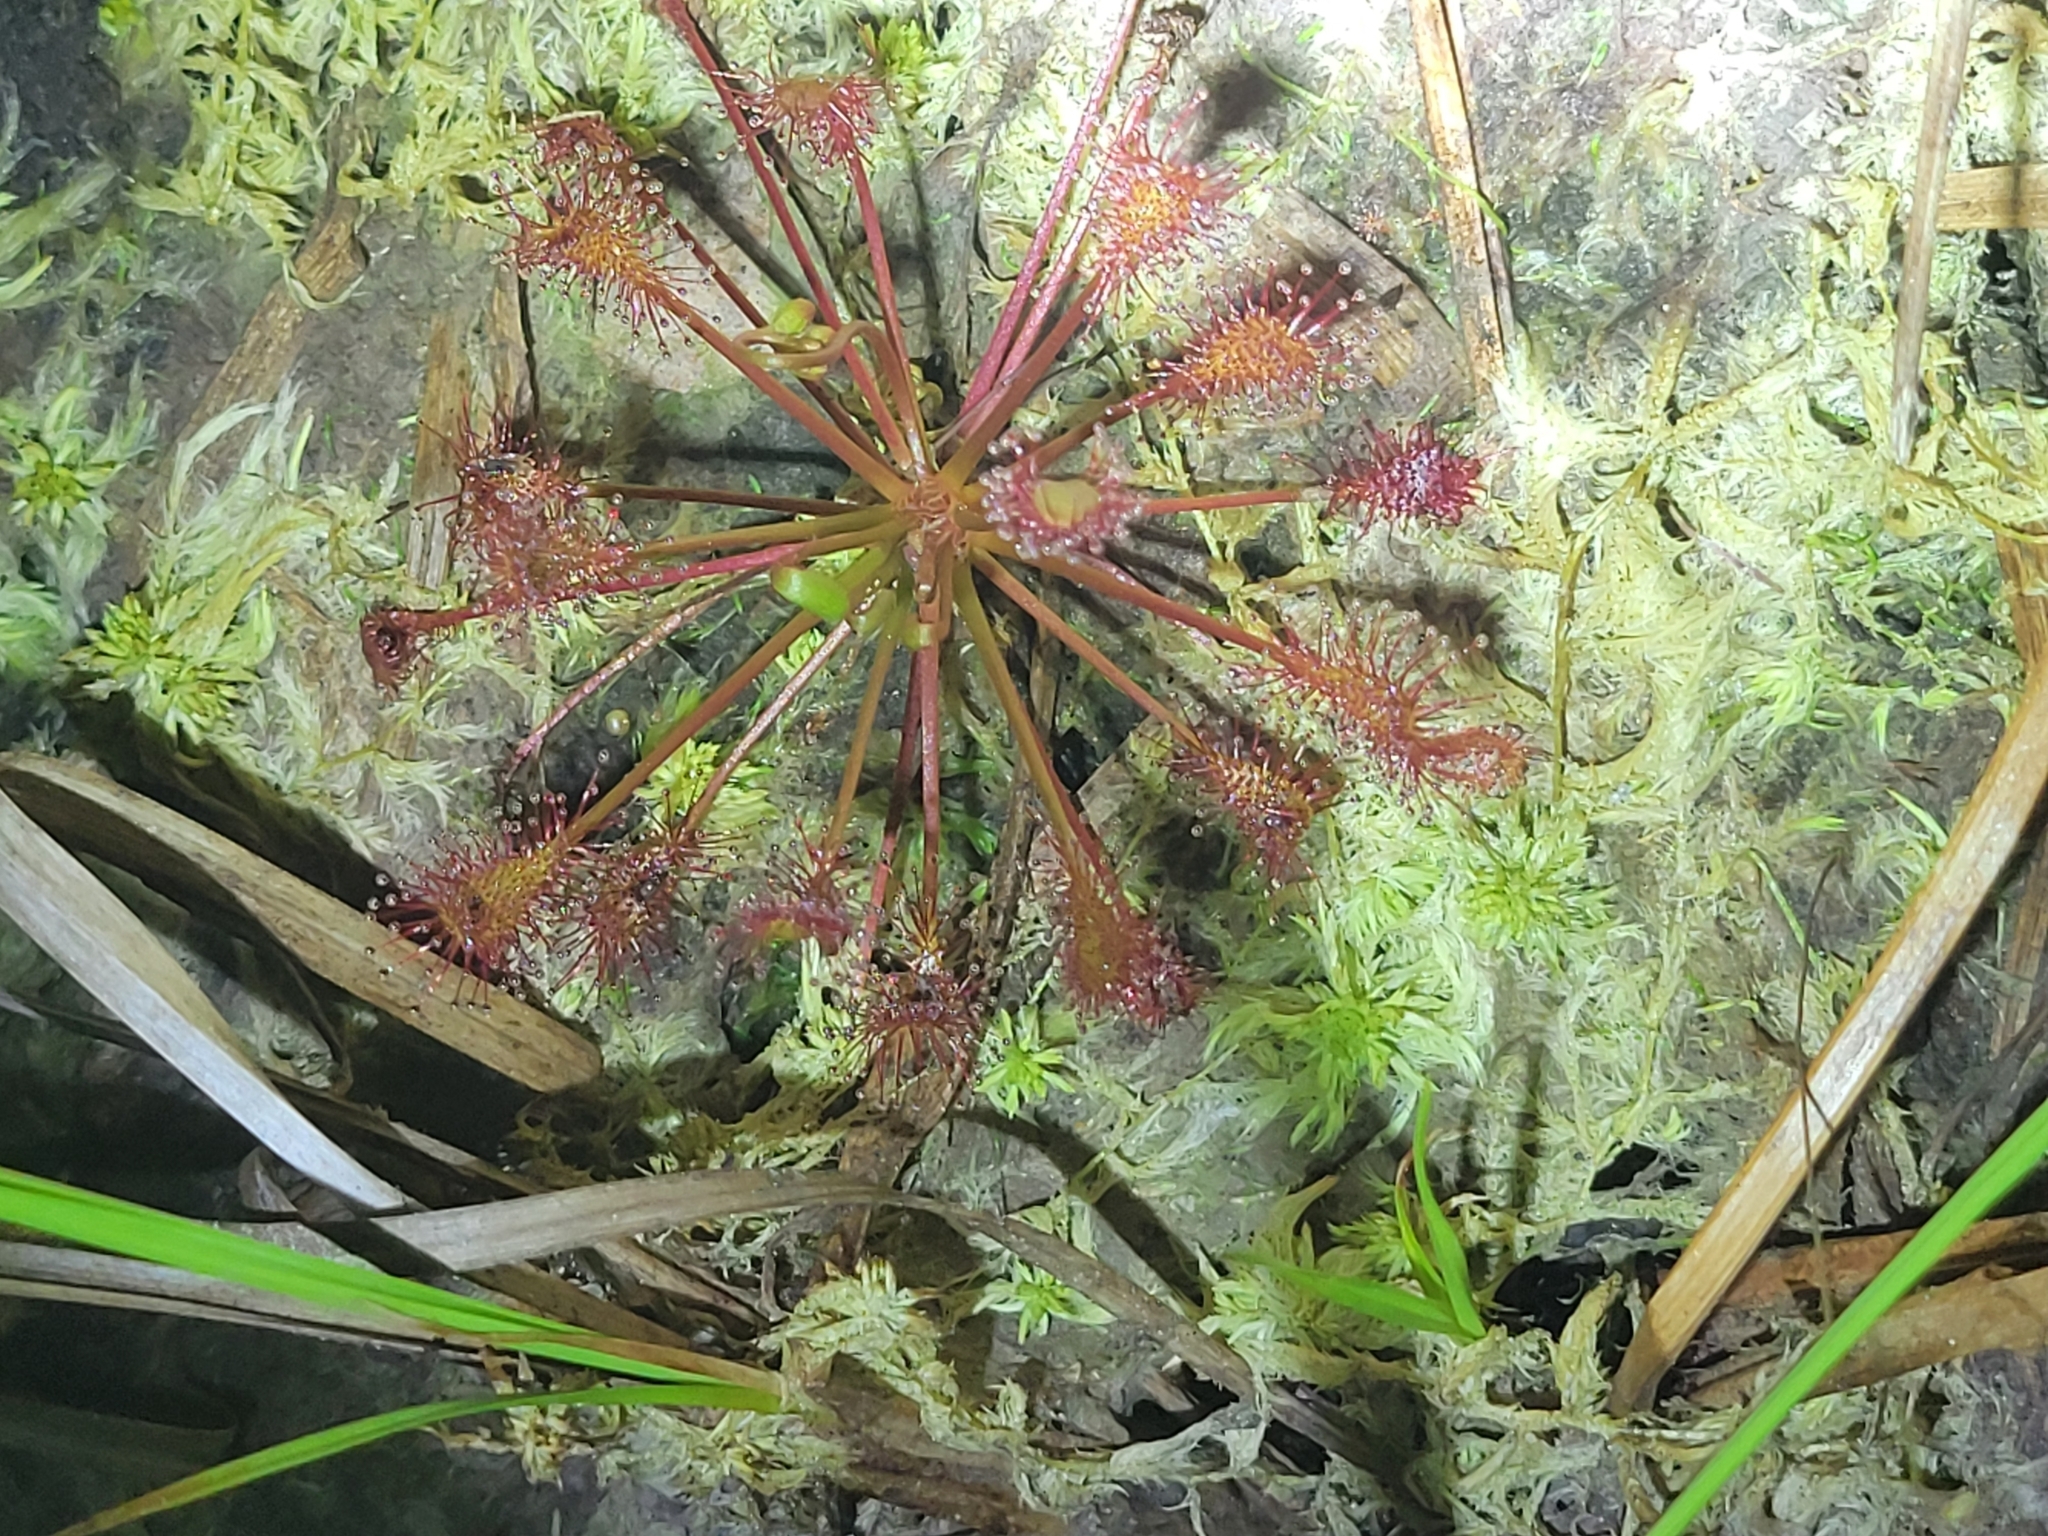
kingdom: Plantae
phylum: Tracheophyta
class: Magnoliopsida
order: Caryophyllales
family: Droseraceae
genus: Drosera
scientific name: Drosera intermedia
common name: Oblong-leaved sundew
